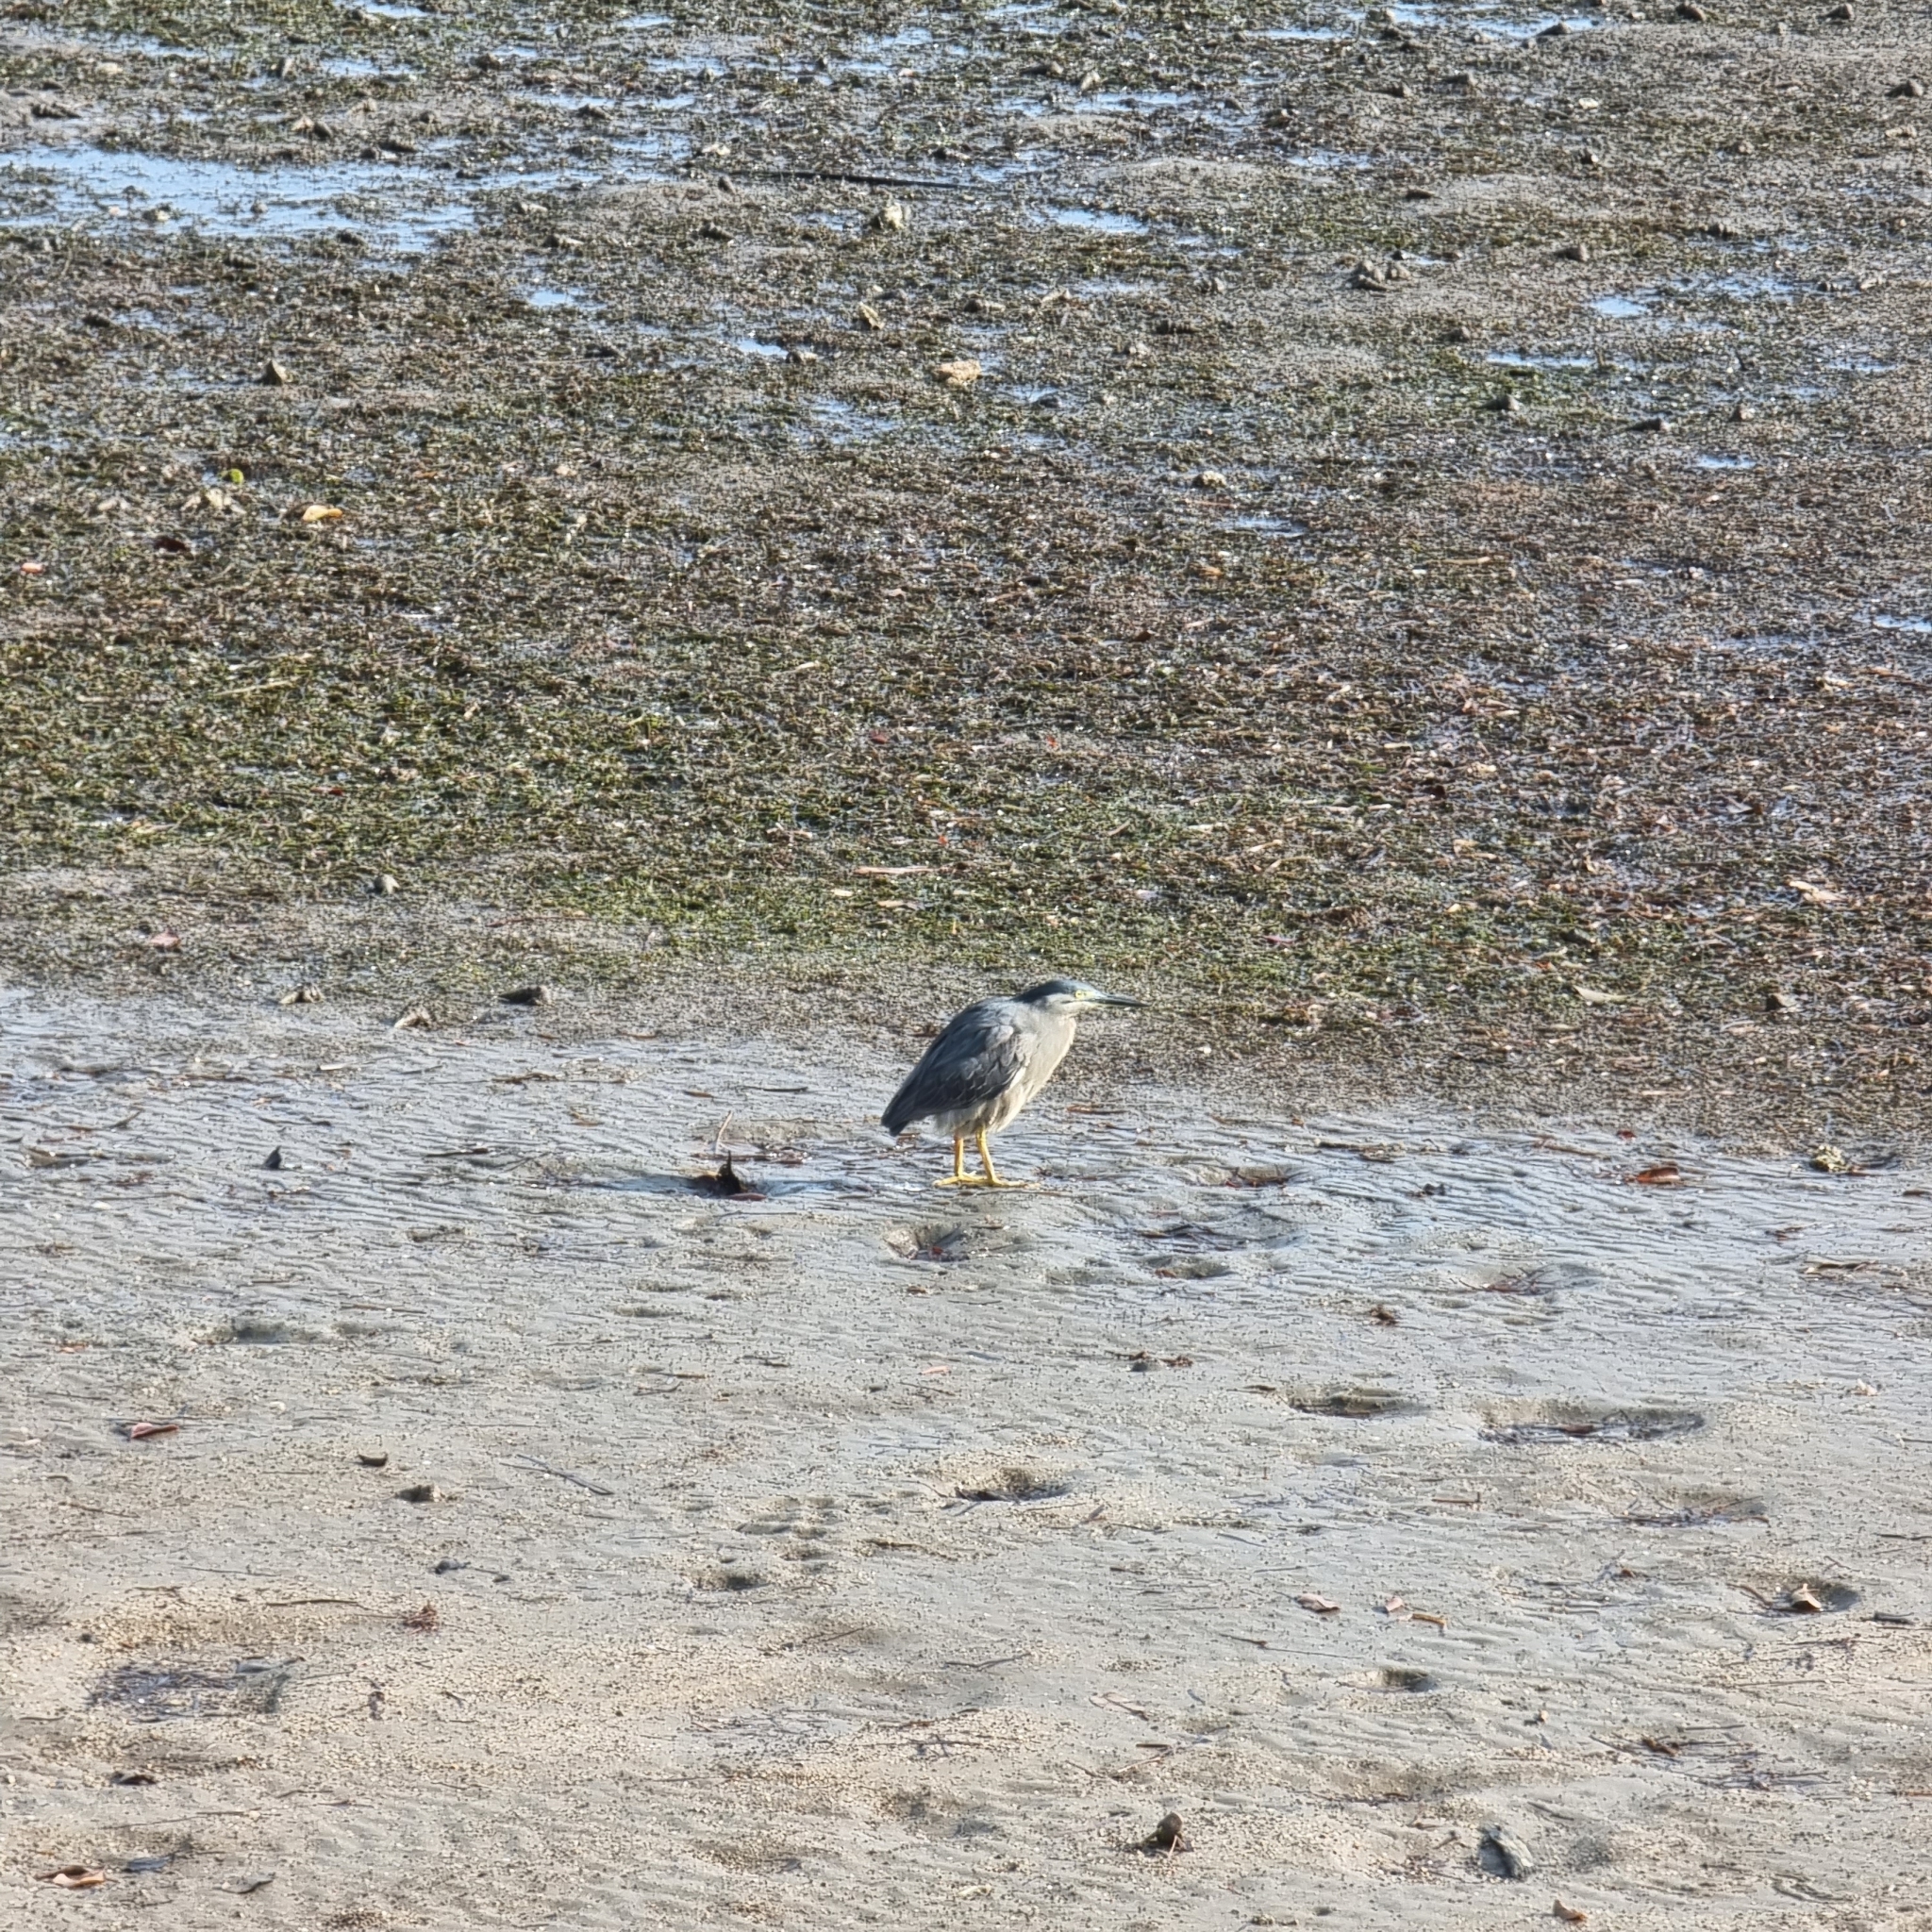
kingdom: Animalia
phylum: Chordata
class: Aves
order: Pelecaniformes
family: Ardeidae
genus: Butorides
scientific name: Butorides striata
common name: Striated heron
